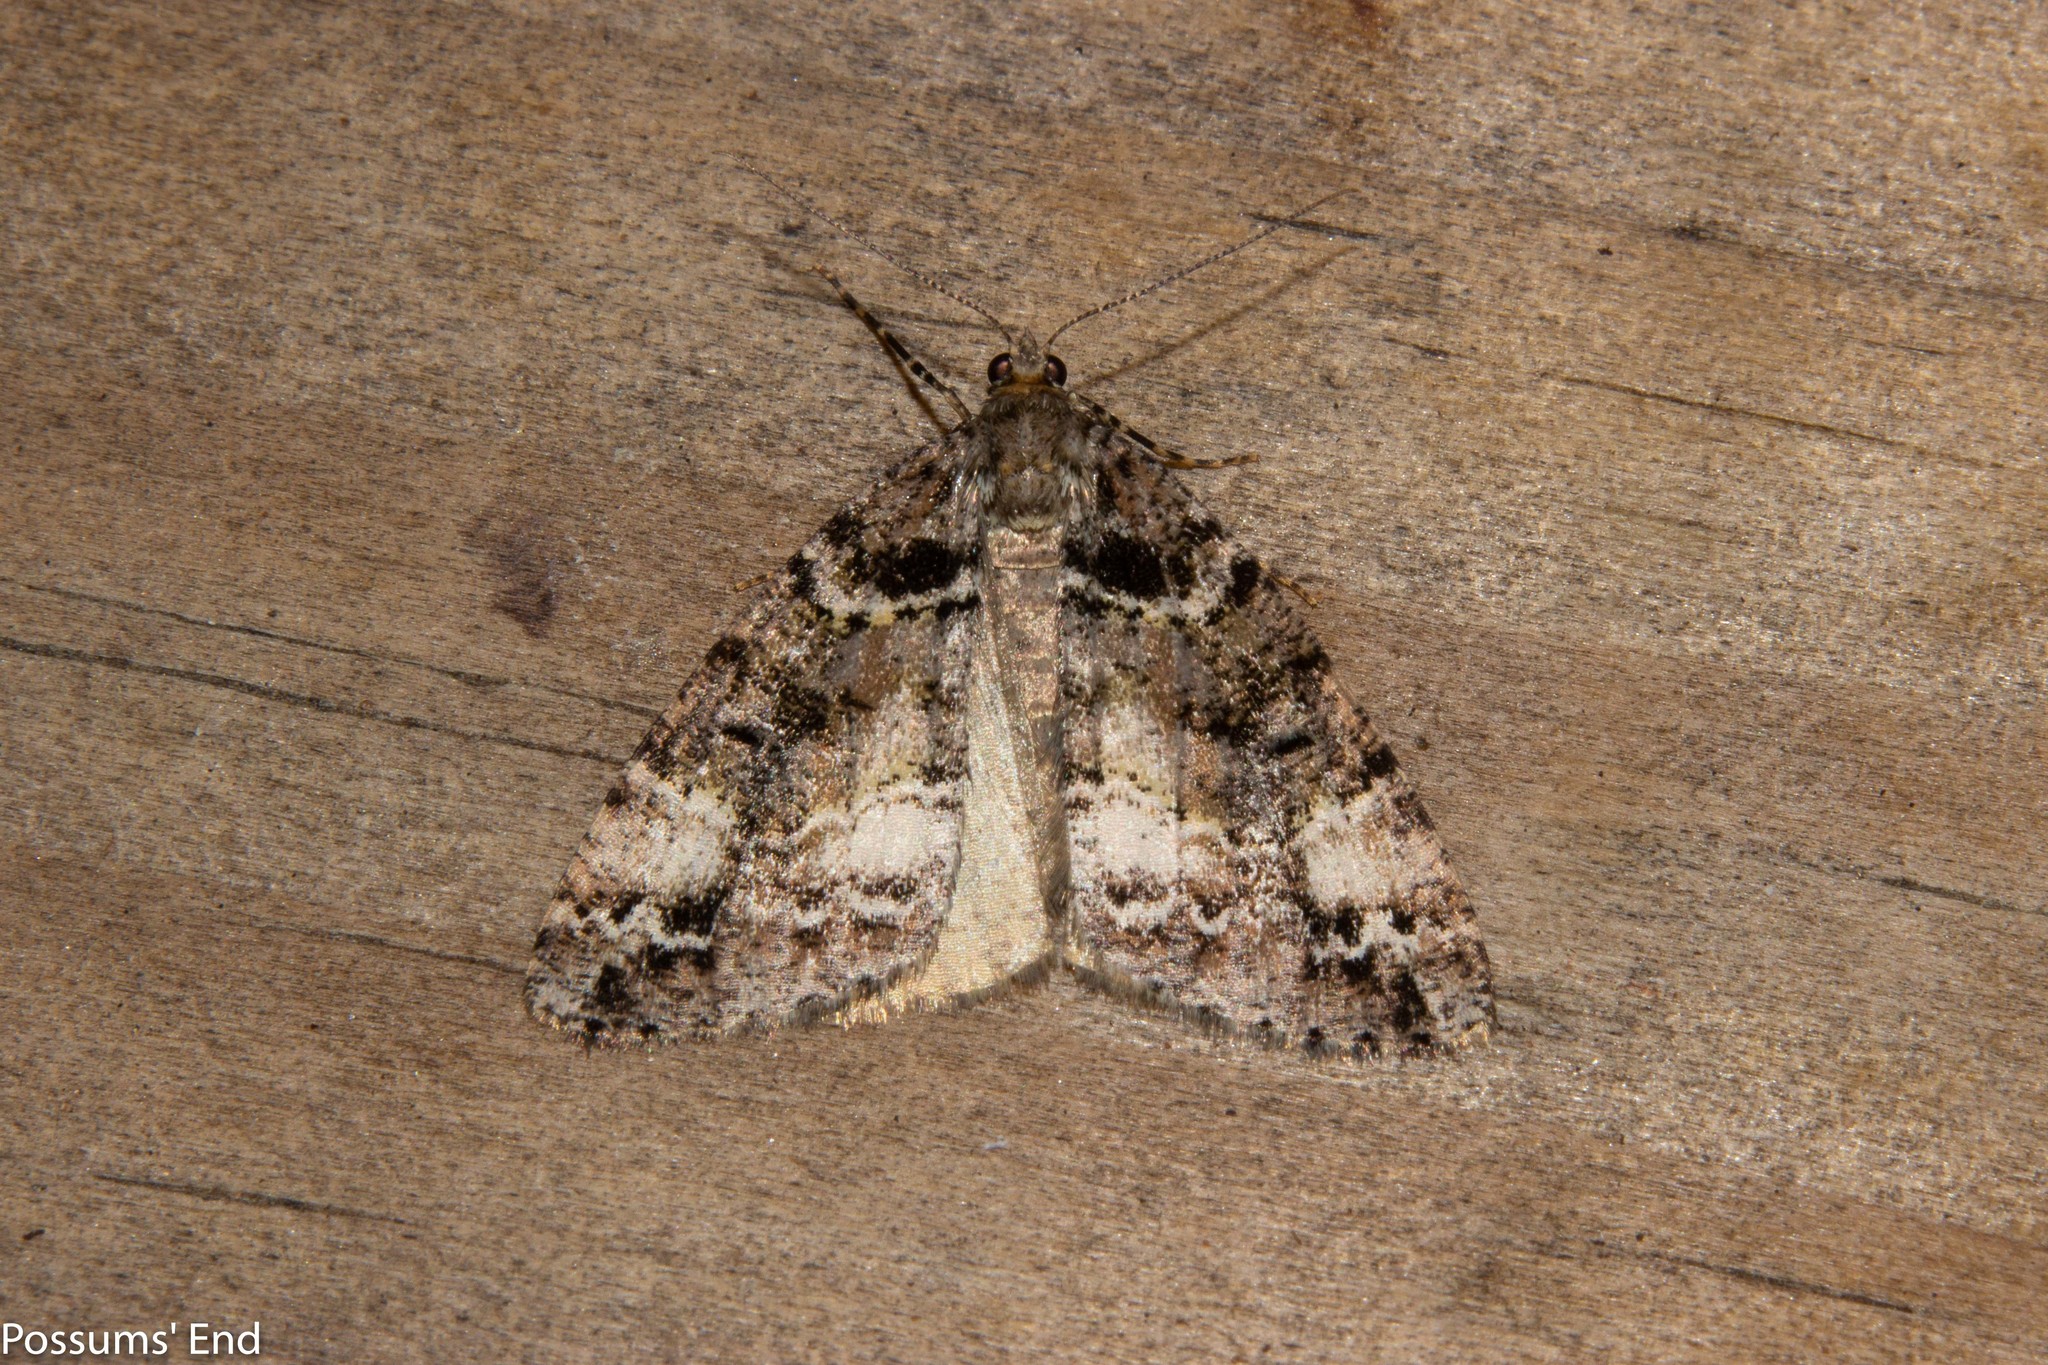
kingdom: Animalia
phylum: Arthropoda
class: Insecta
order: Lepidoptera
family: Geometridae
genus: Pseudocoremia
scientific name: Pseudocoremia productata
